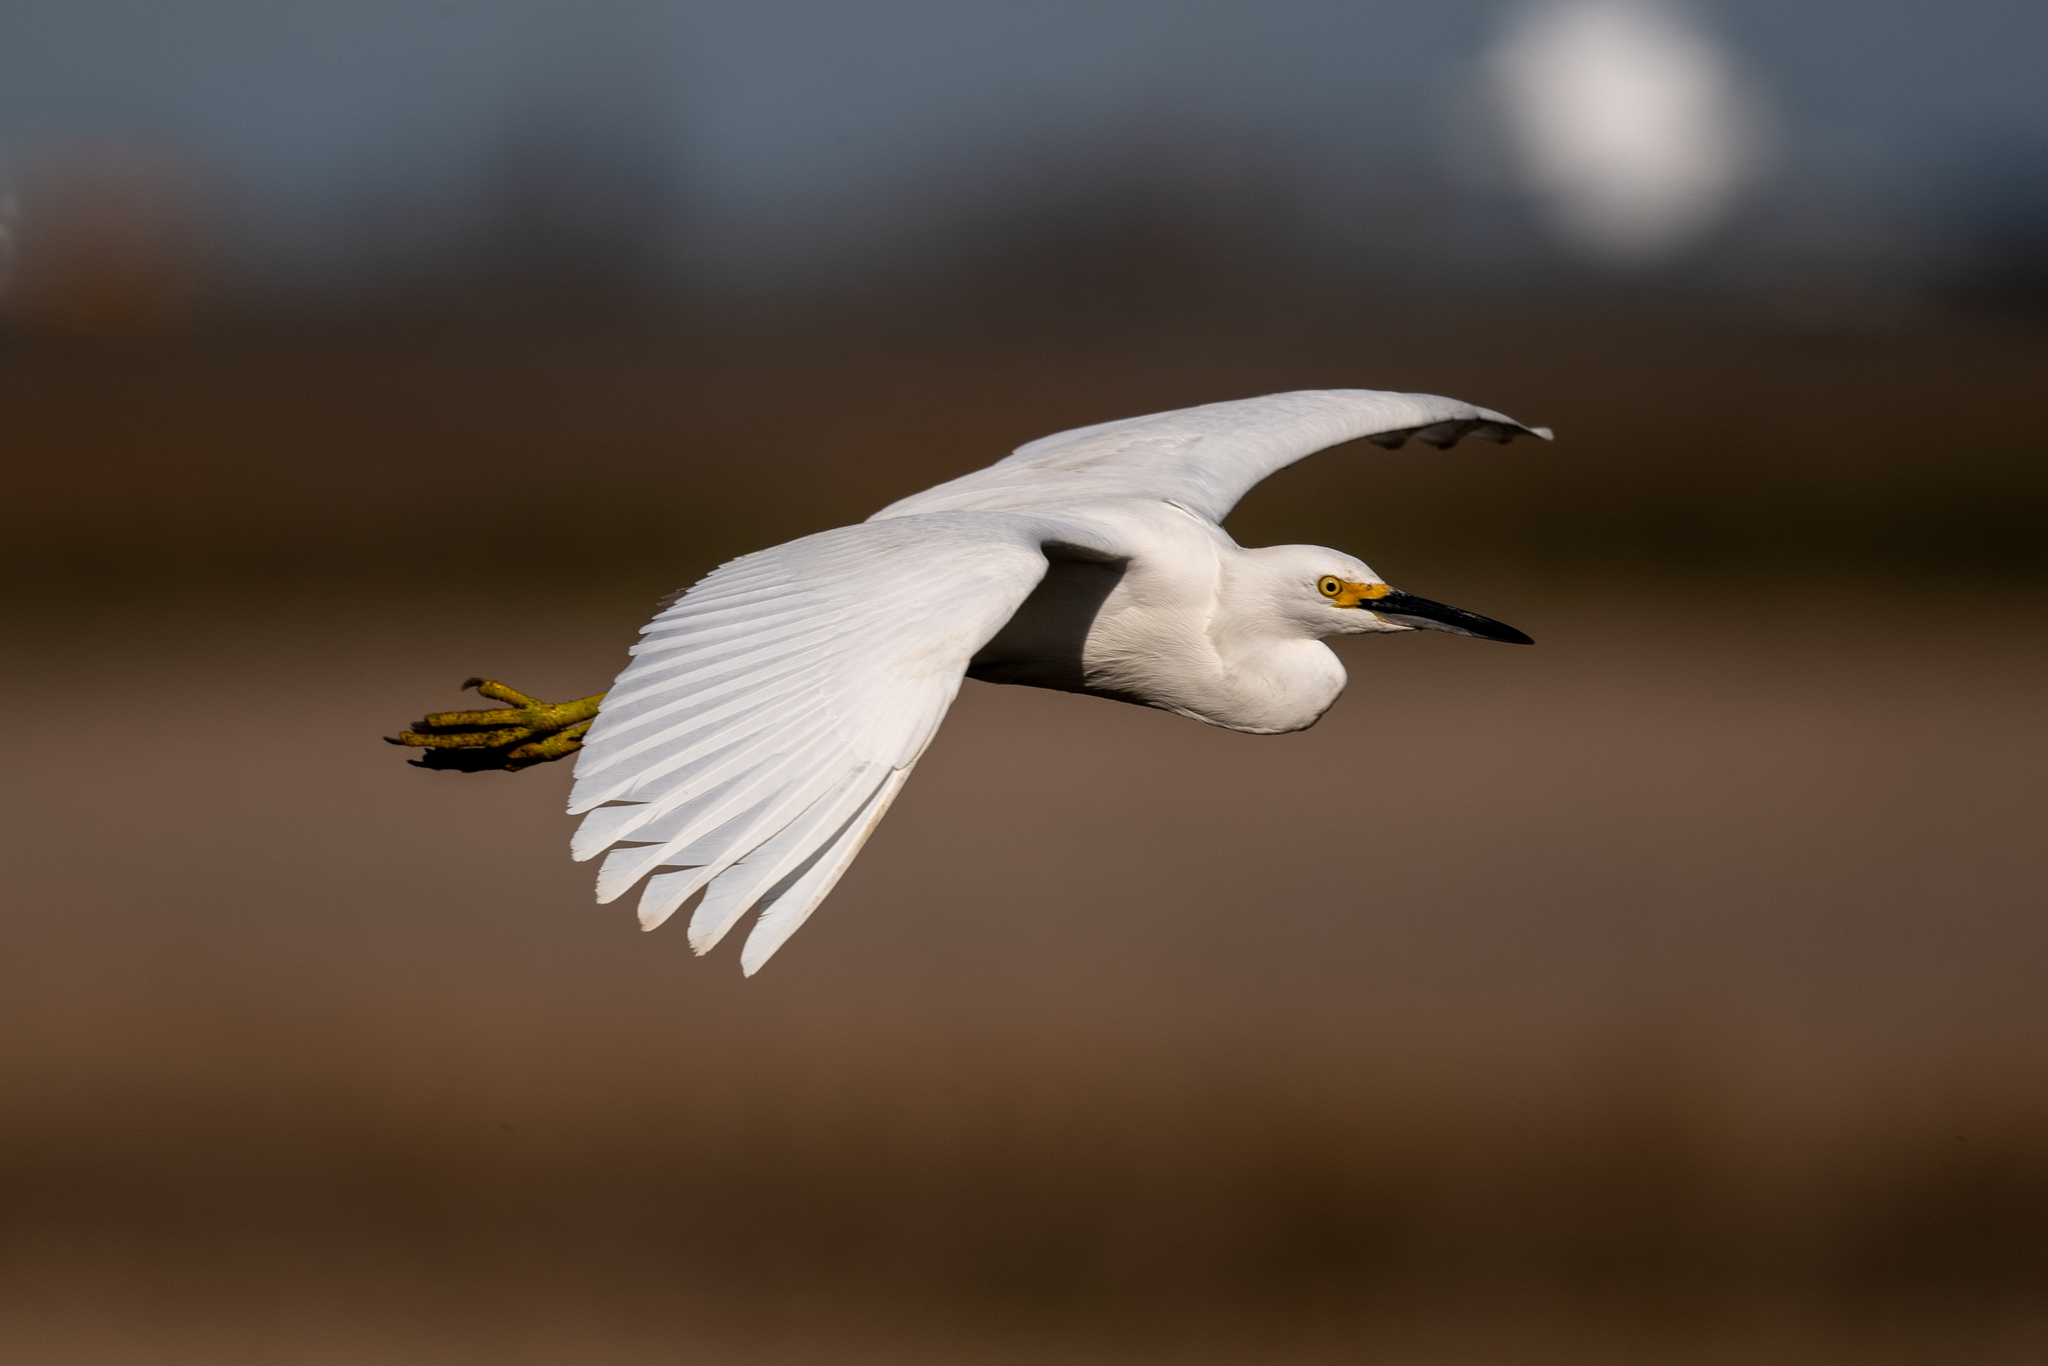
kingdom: Animalia
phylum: Chordata
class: Aves
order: Pelecaniformes
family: Ardeidae
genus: Egretta
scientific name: Egretta thula
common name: Snowy egret
